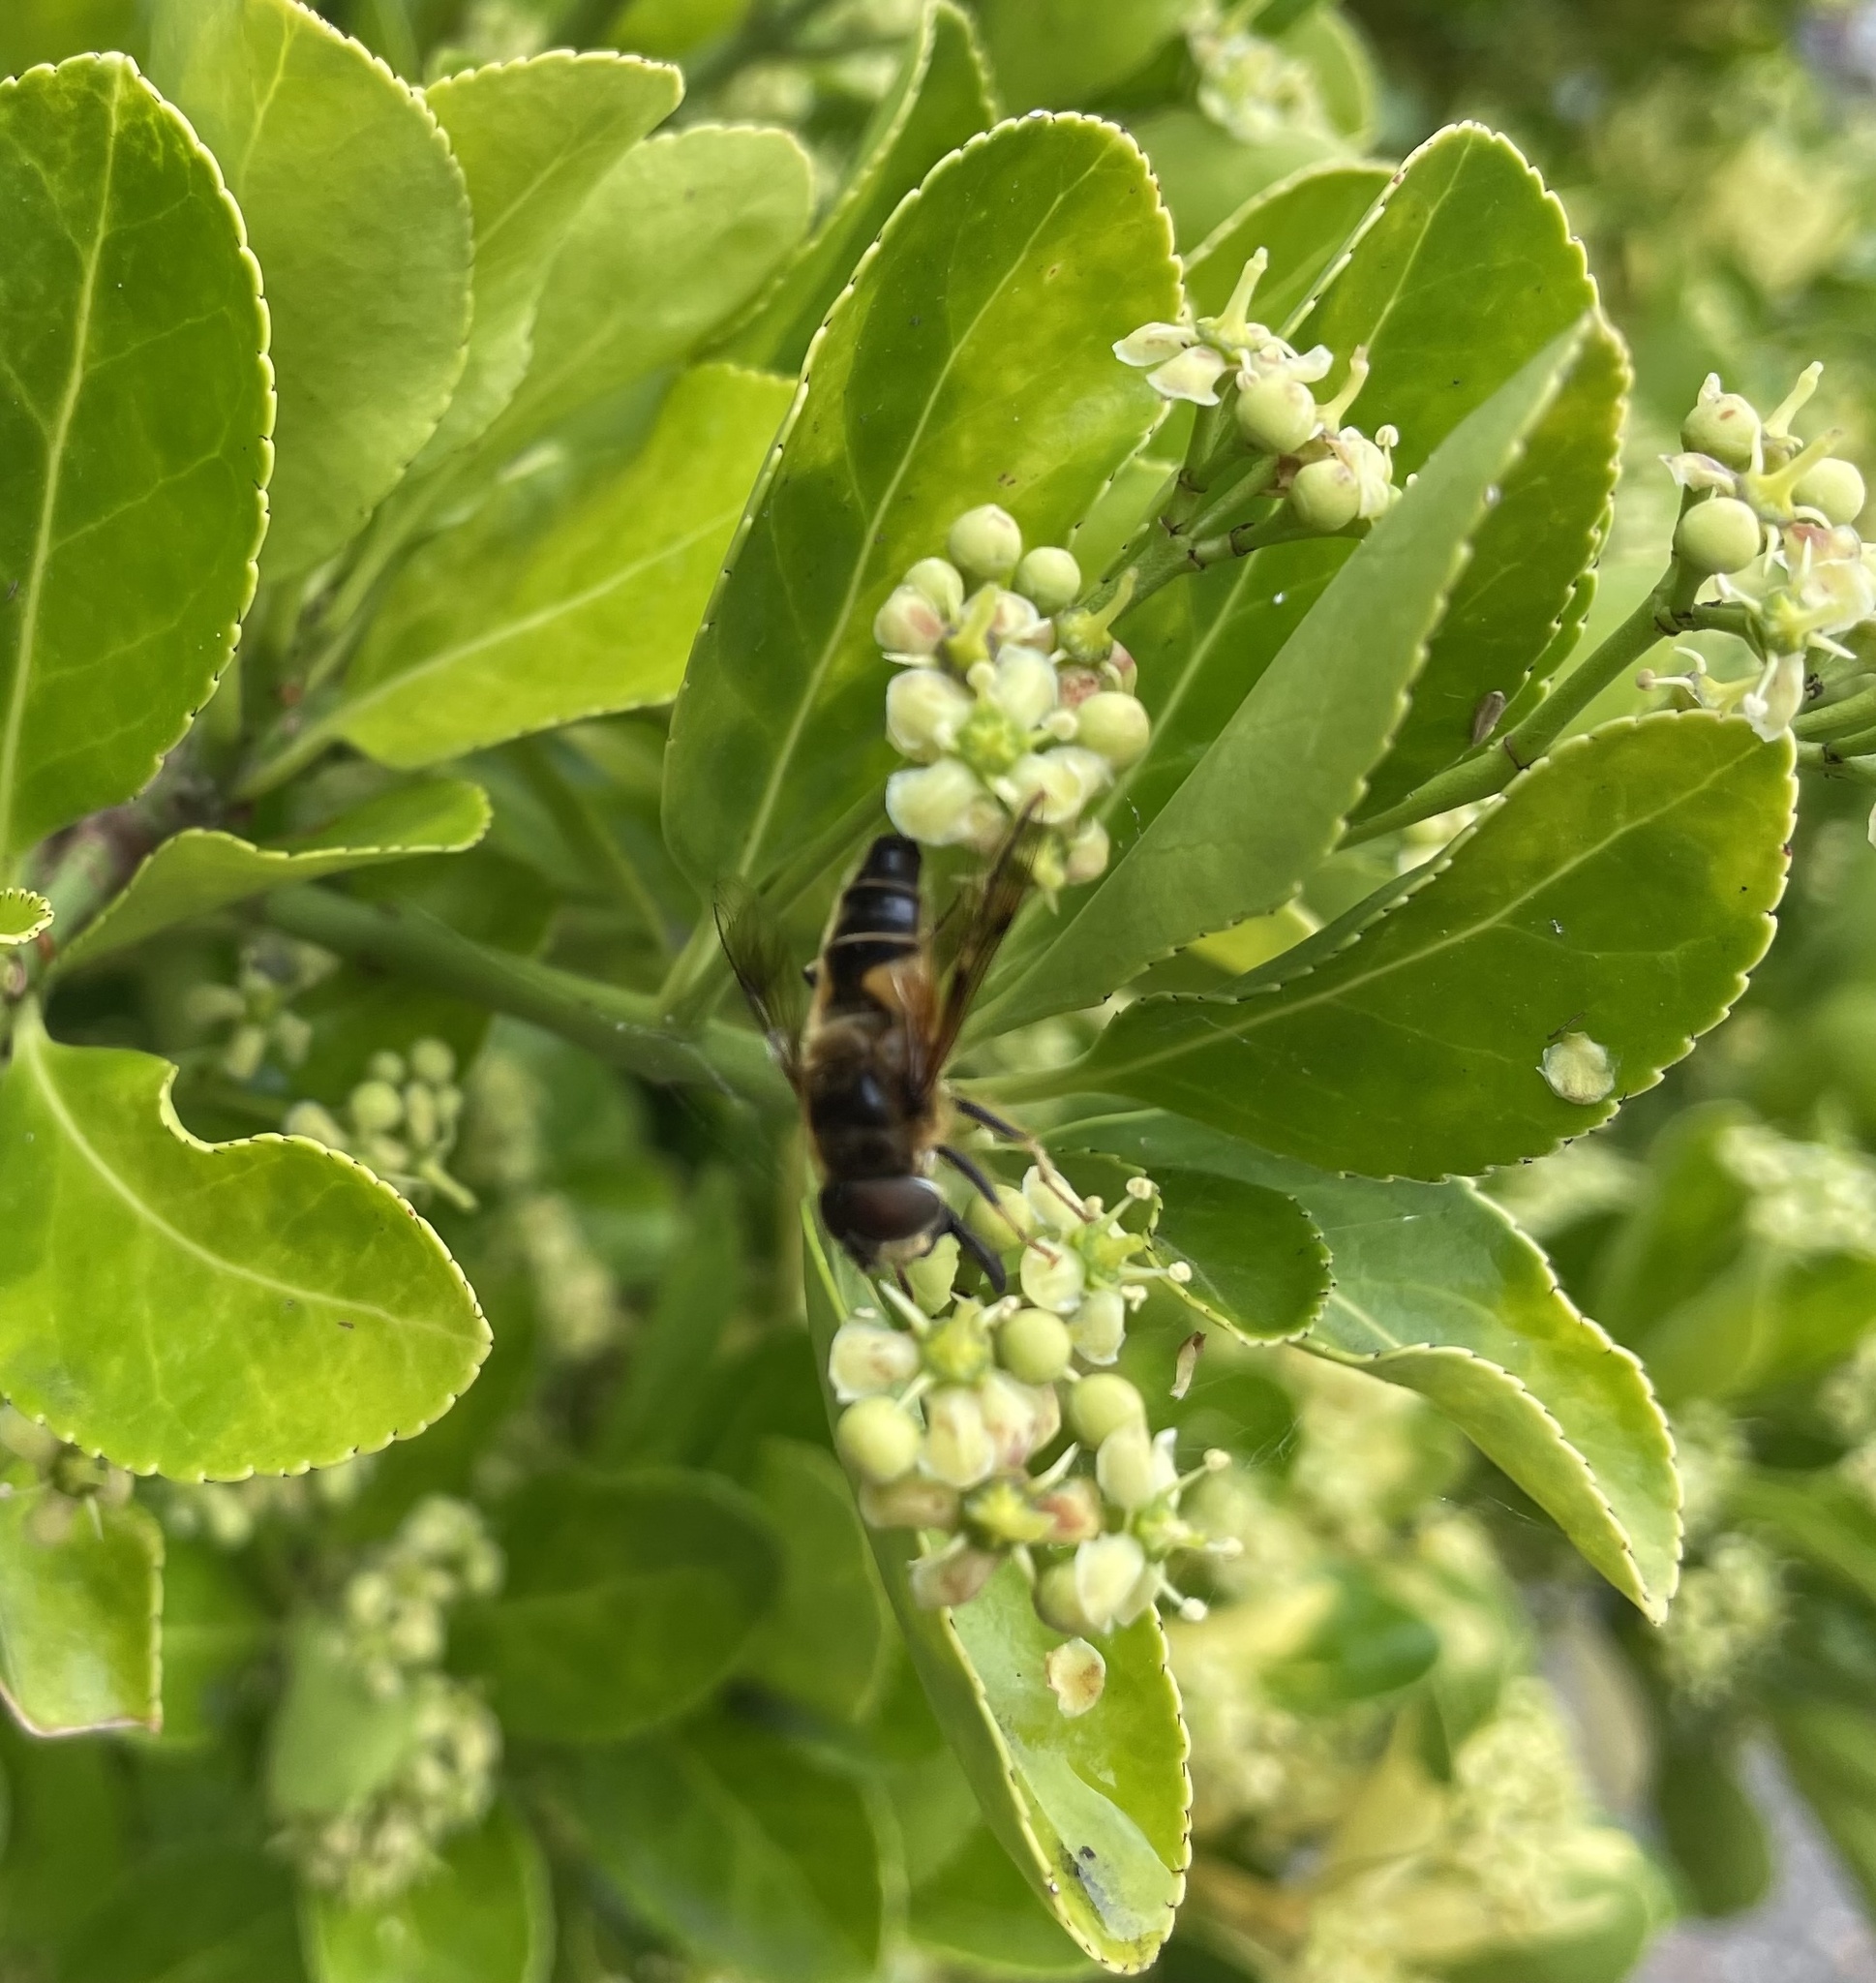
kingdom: Animalia
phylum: Arthropoda
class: Insecta
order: Diptera
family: Syrphidae
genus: Eristalis
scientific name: Eristalis pertinax
